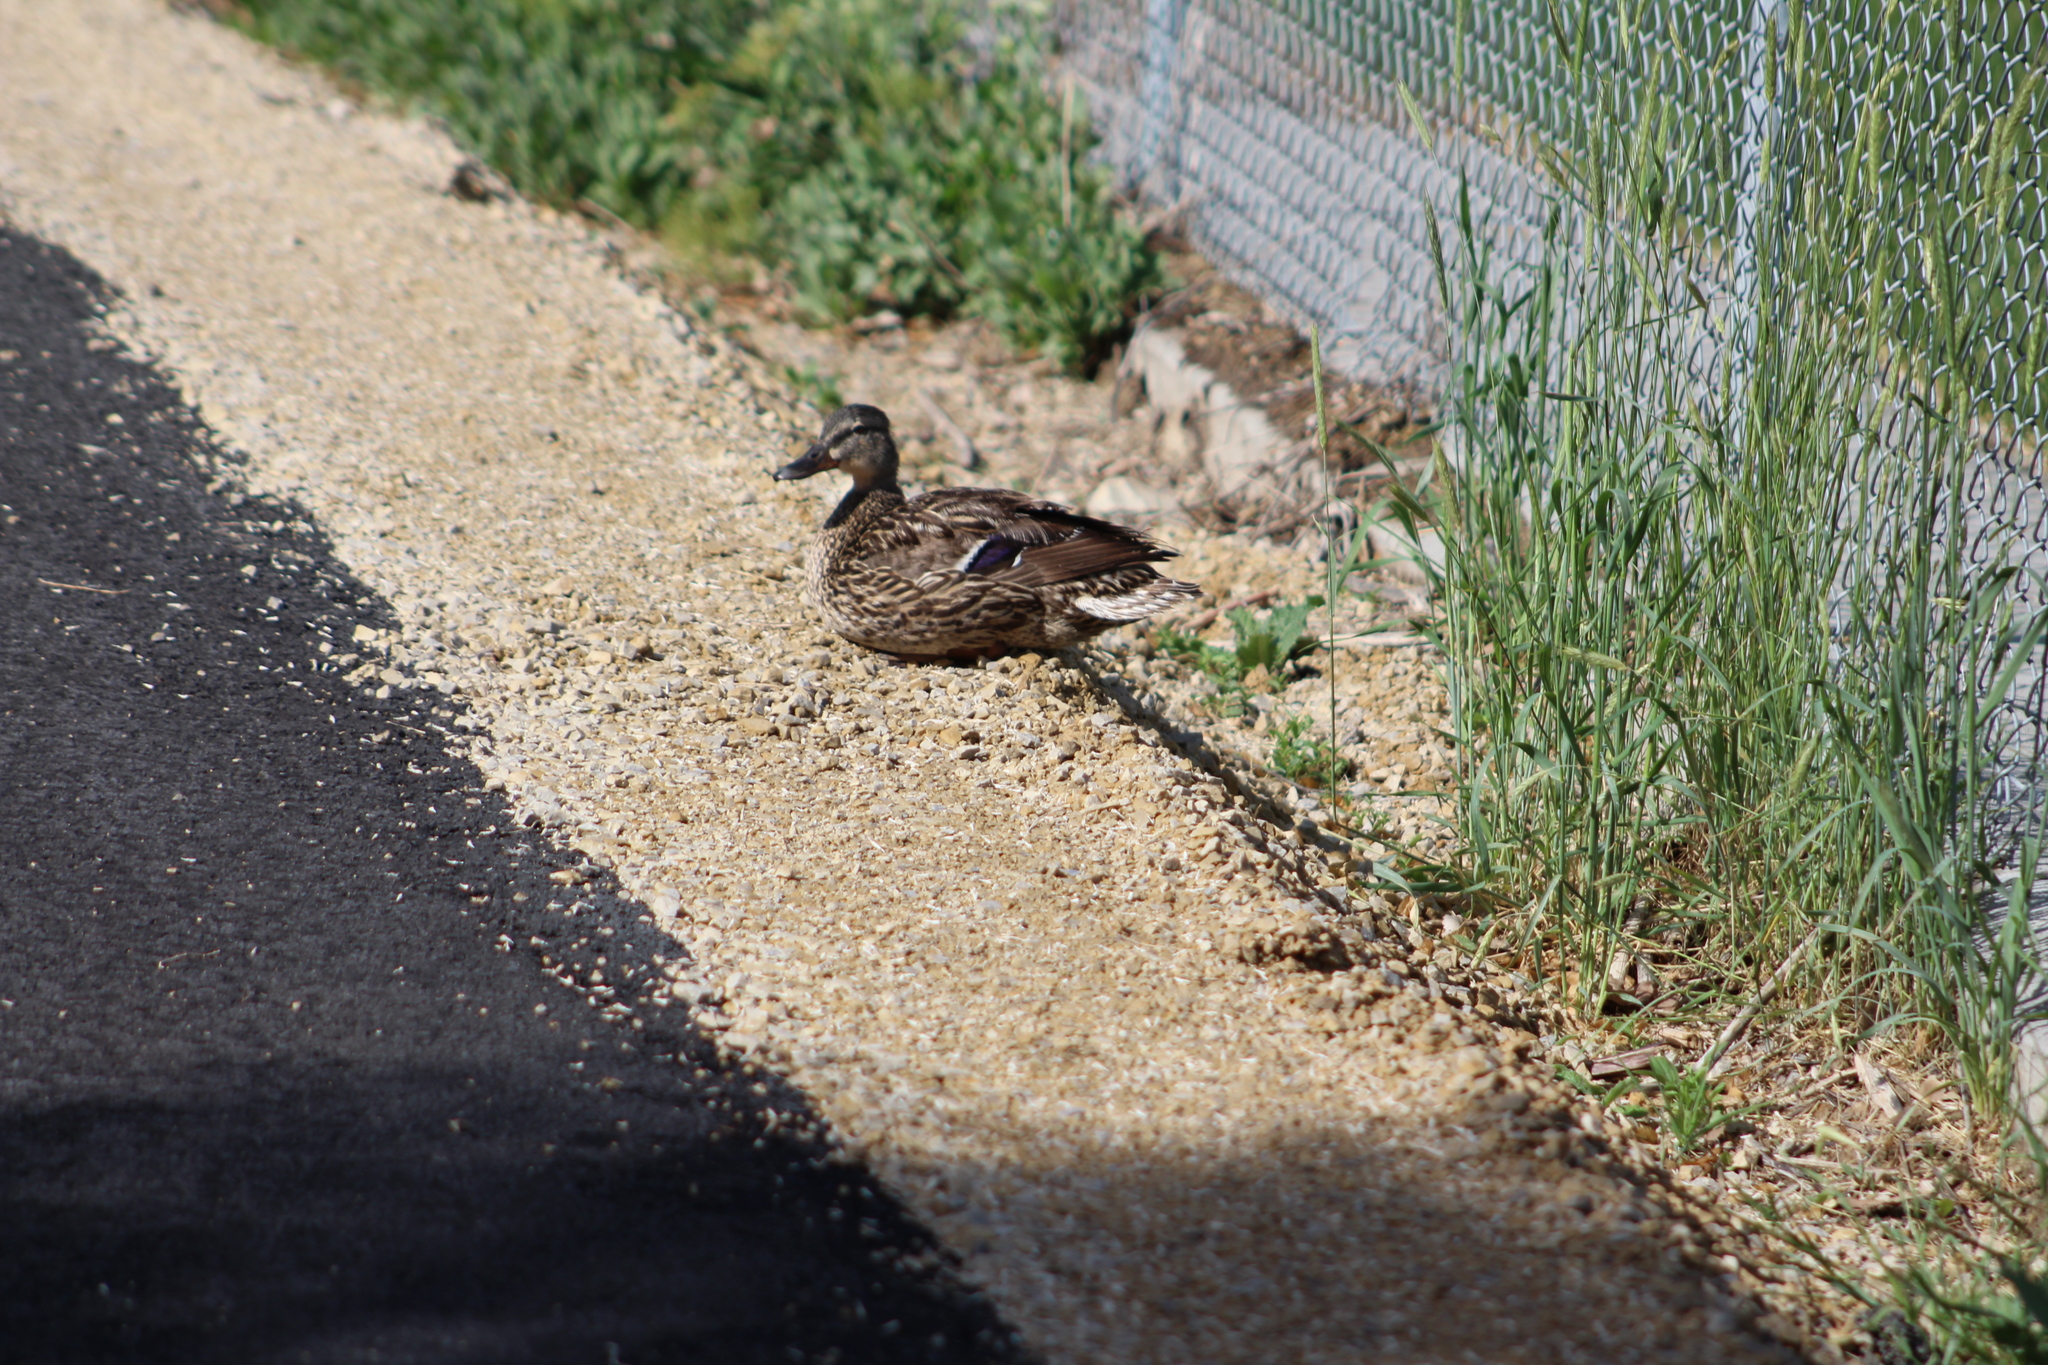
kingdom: Animalia
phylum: Chordata
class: Aves
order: Anseriformes
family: Anatidae
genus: Anas
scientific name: Anas platyrhynchos
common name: Mallard
